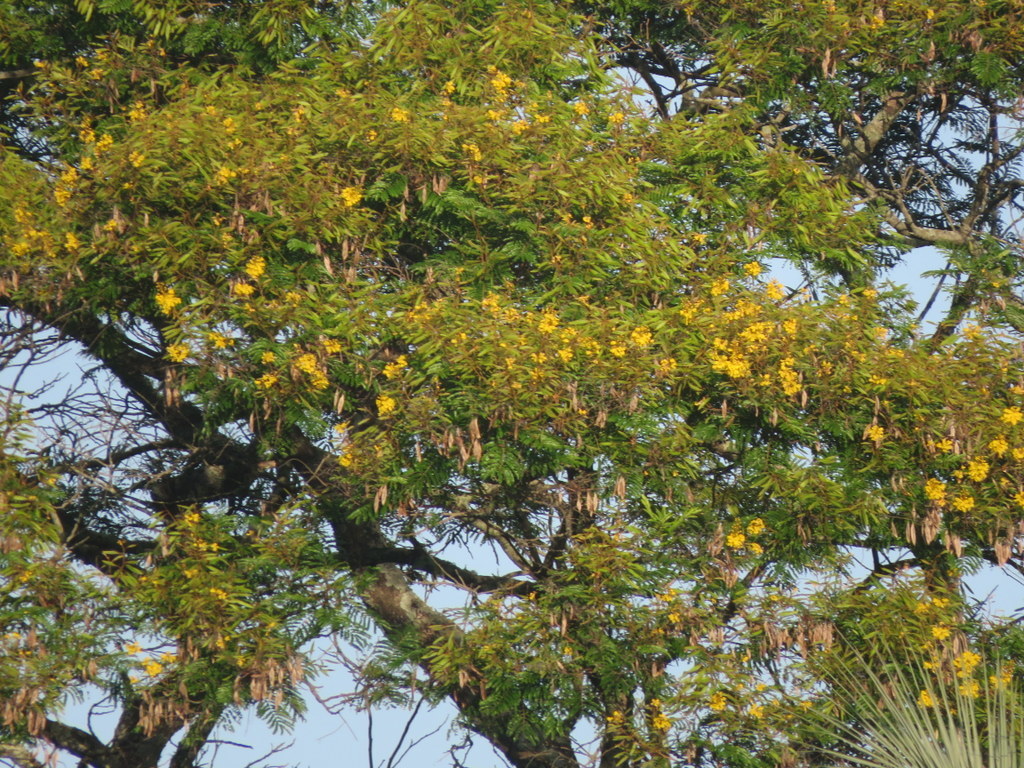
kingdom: Plantae
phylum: Tracheophyta
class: Magnoliopsida
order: Fabales
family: Fabaceae
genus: Peltophorum
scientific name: Peltophorum dubium
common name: Horsebush
